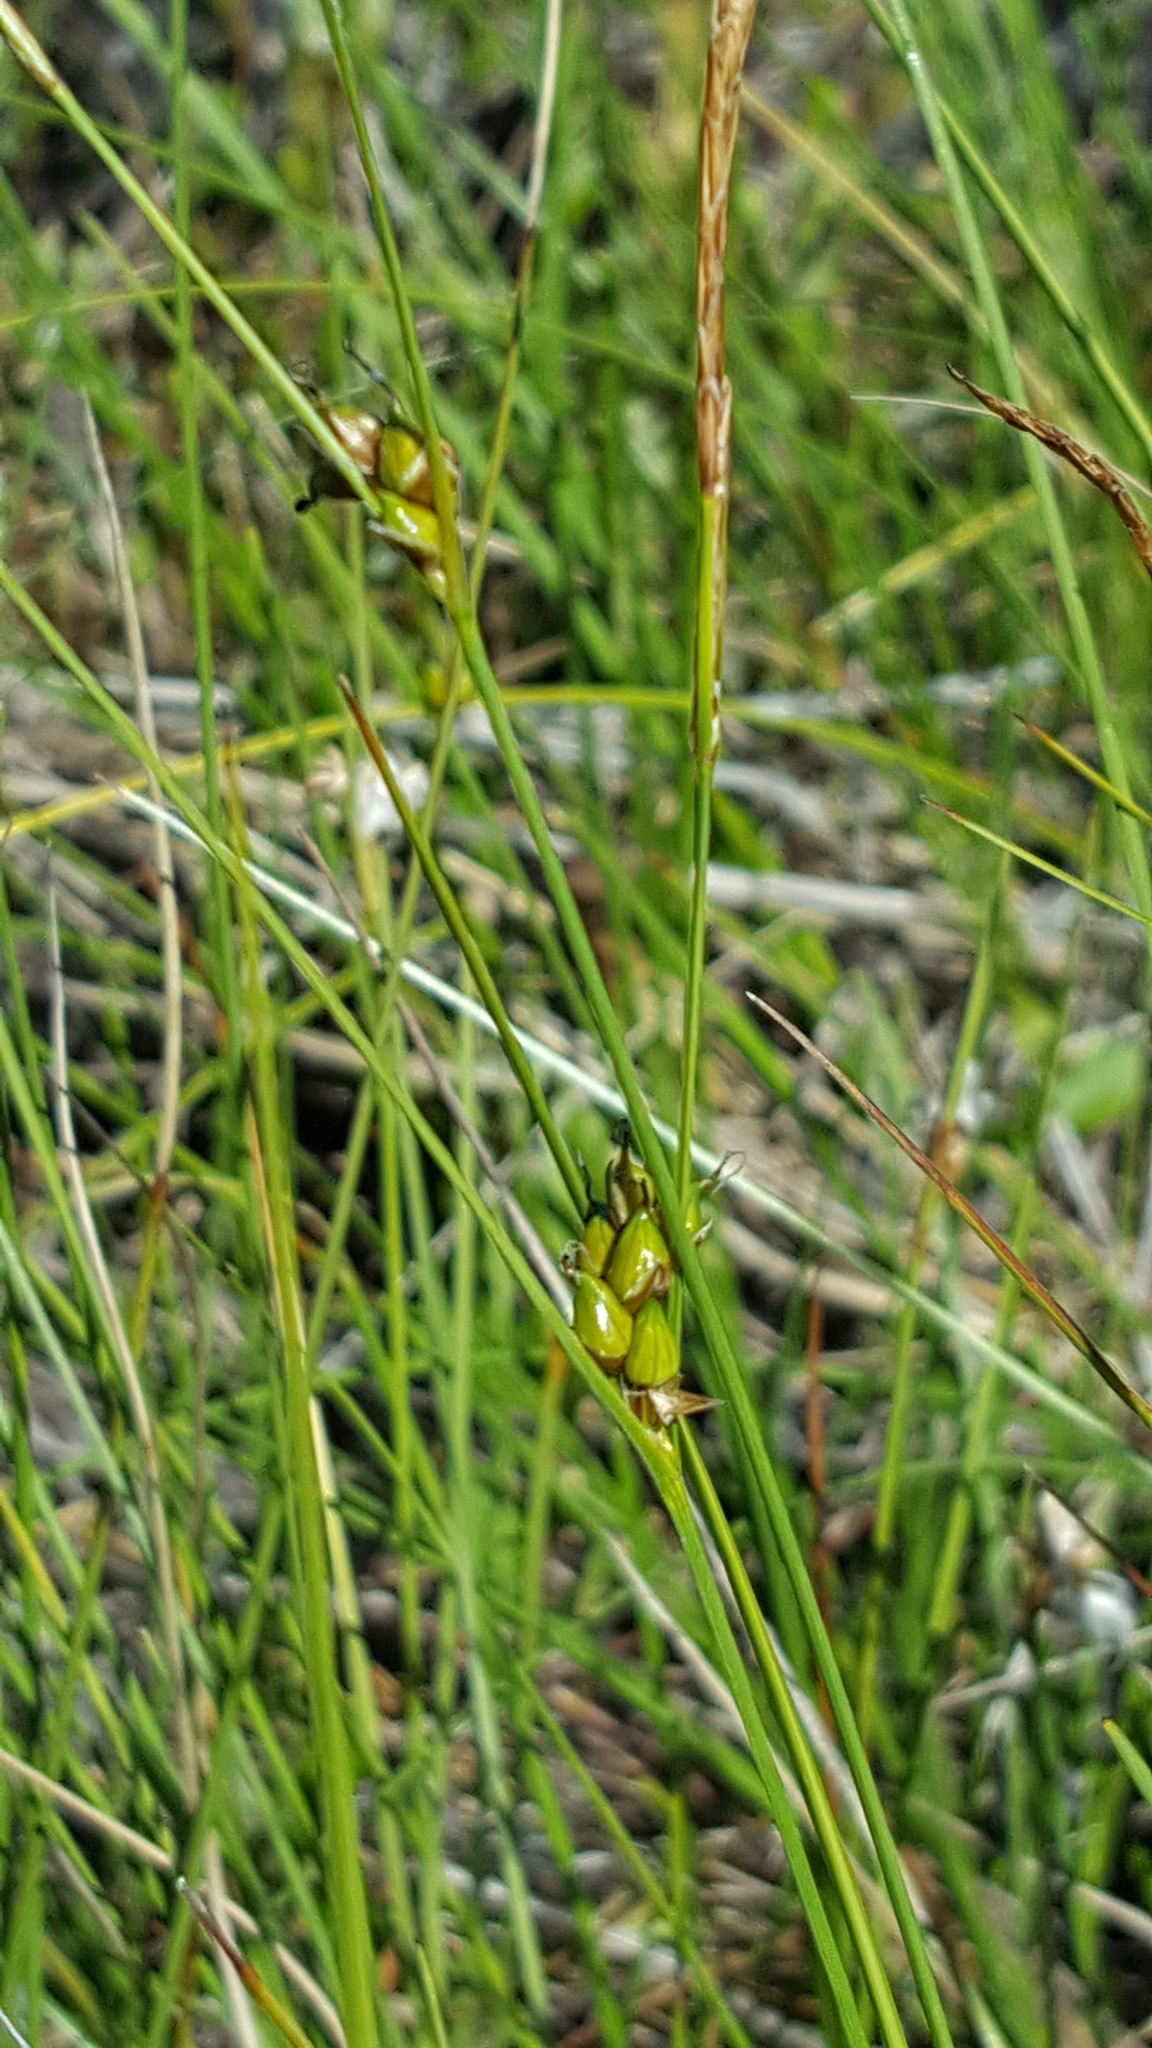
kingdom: Plantae
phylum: Tracheophyta
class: Liliopsida
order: Poales
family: Cyperaceae
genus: Carex
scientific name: Carex oligosperma
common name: Few-seed sedge
